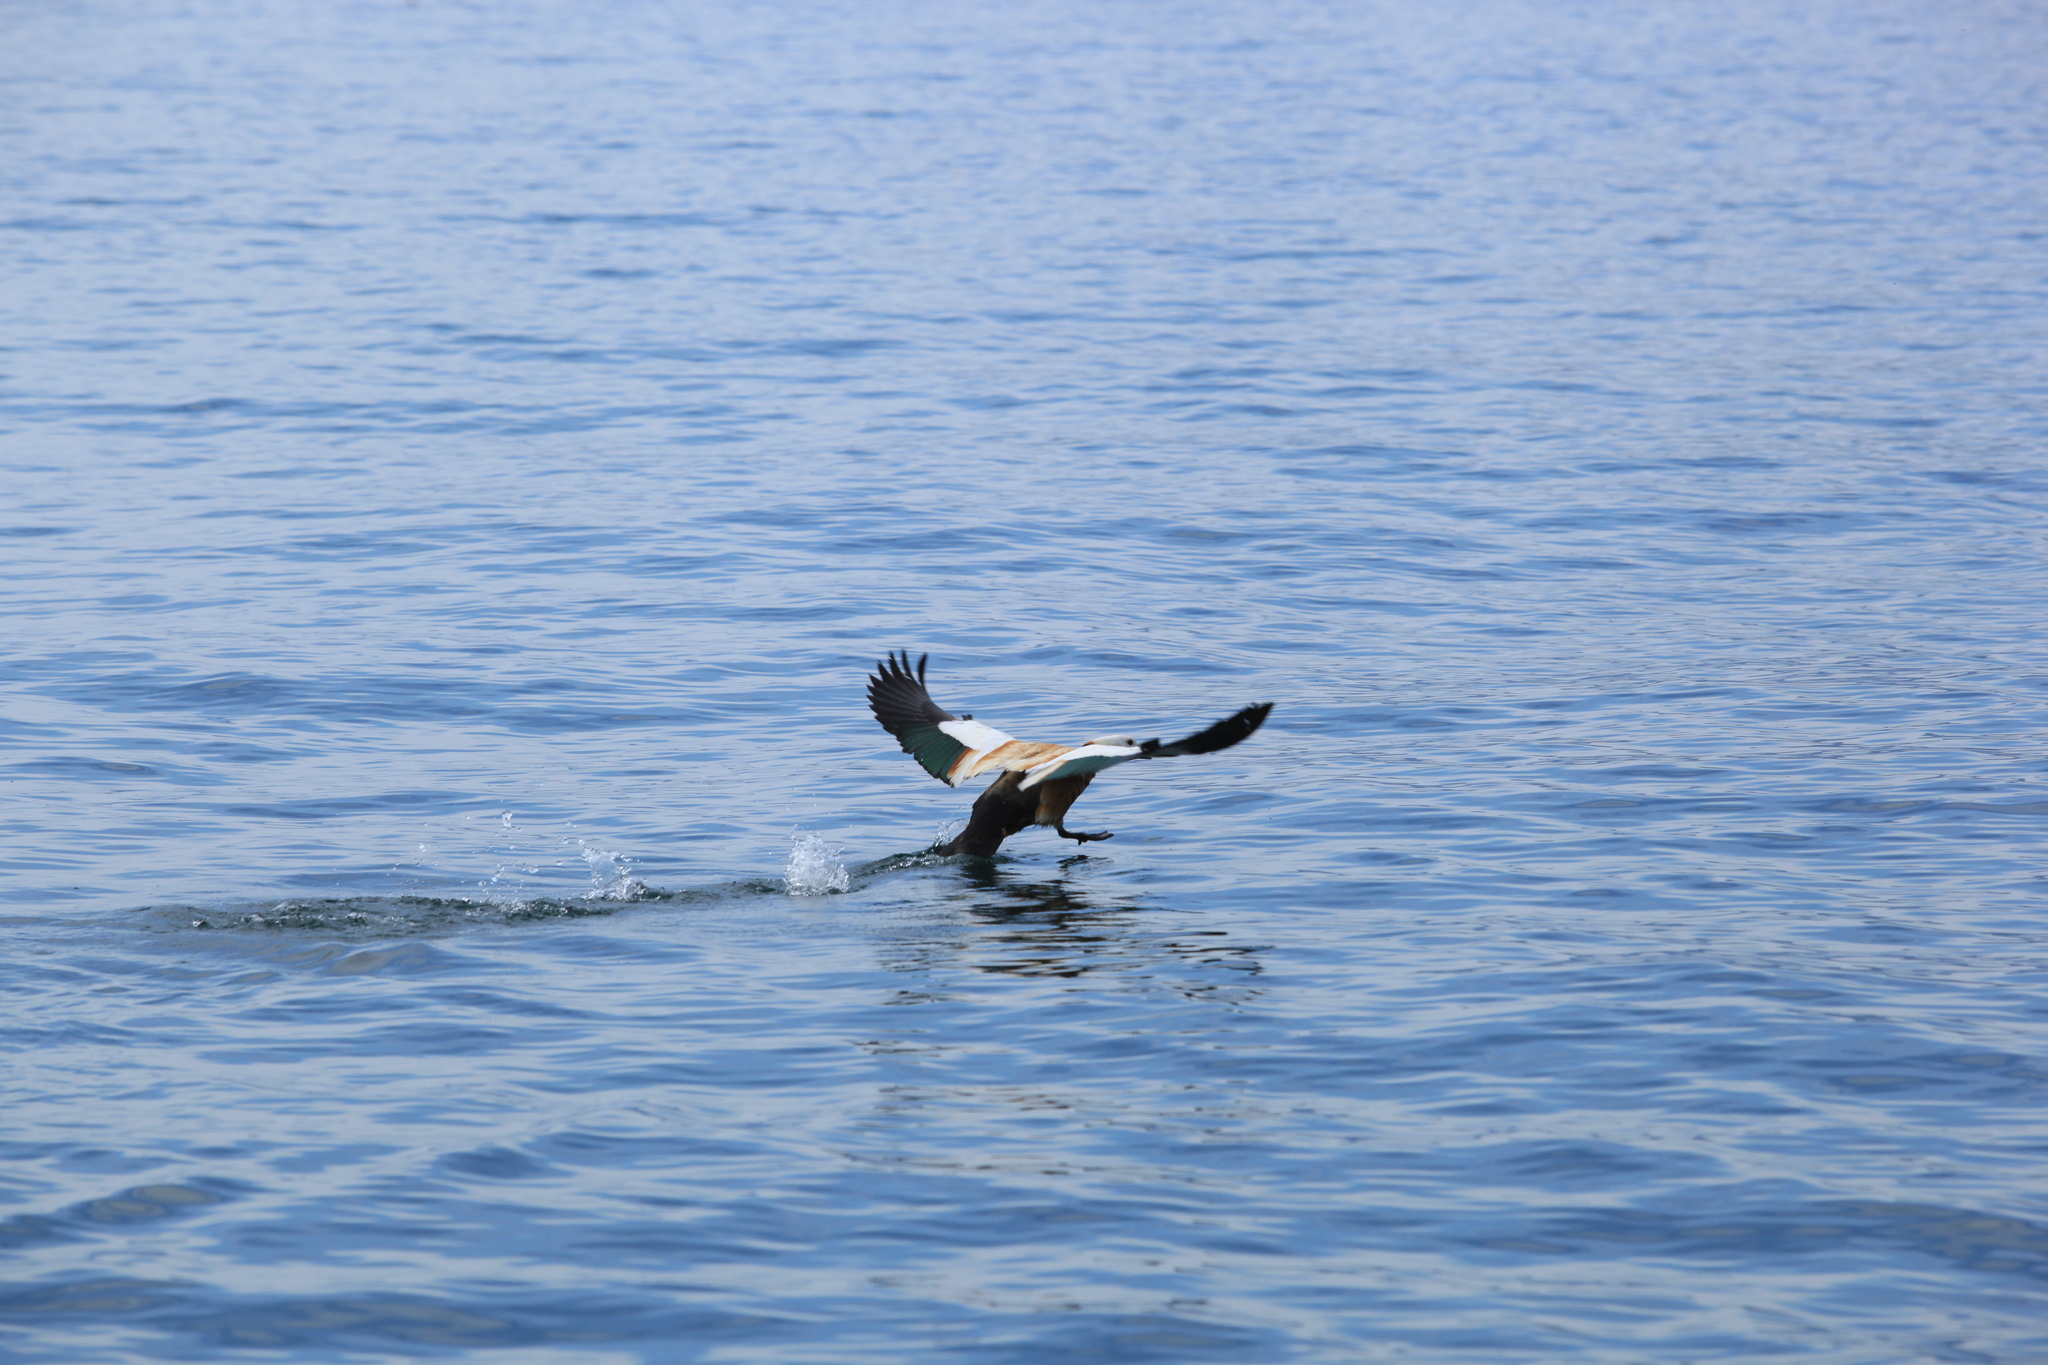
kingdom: Animalia
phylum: Chordata
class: Aves
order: Anseriformes
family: Anatidae
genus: Tadorna
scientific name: Tadorna ferruginea
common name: Ruddy shelduck
